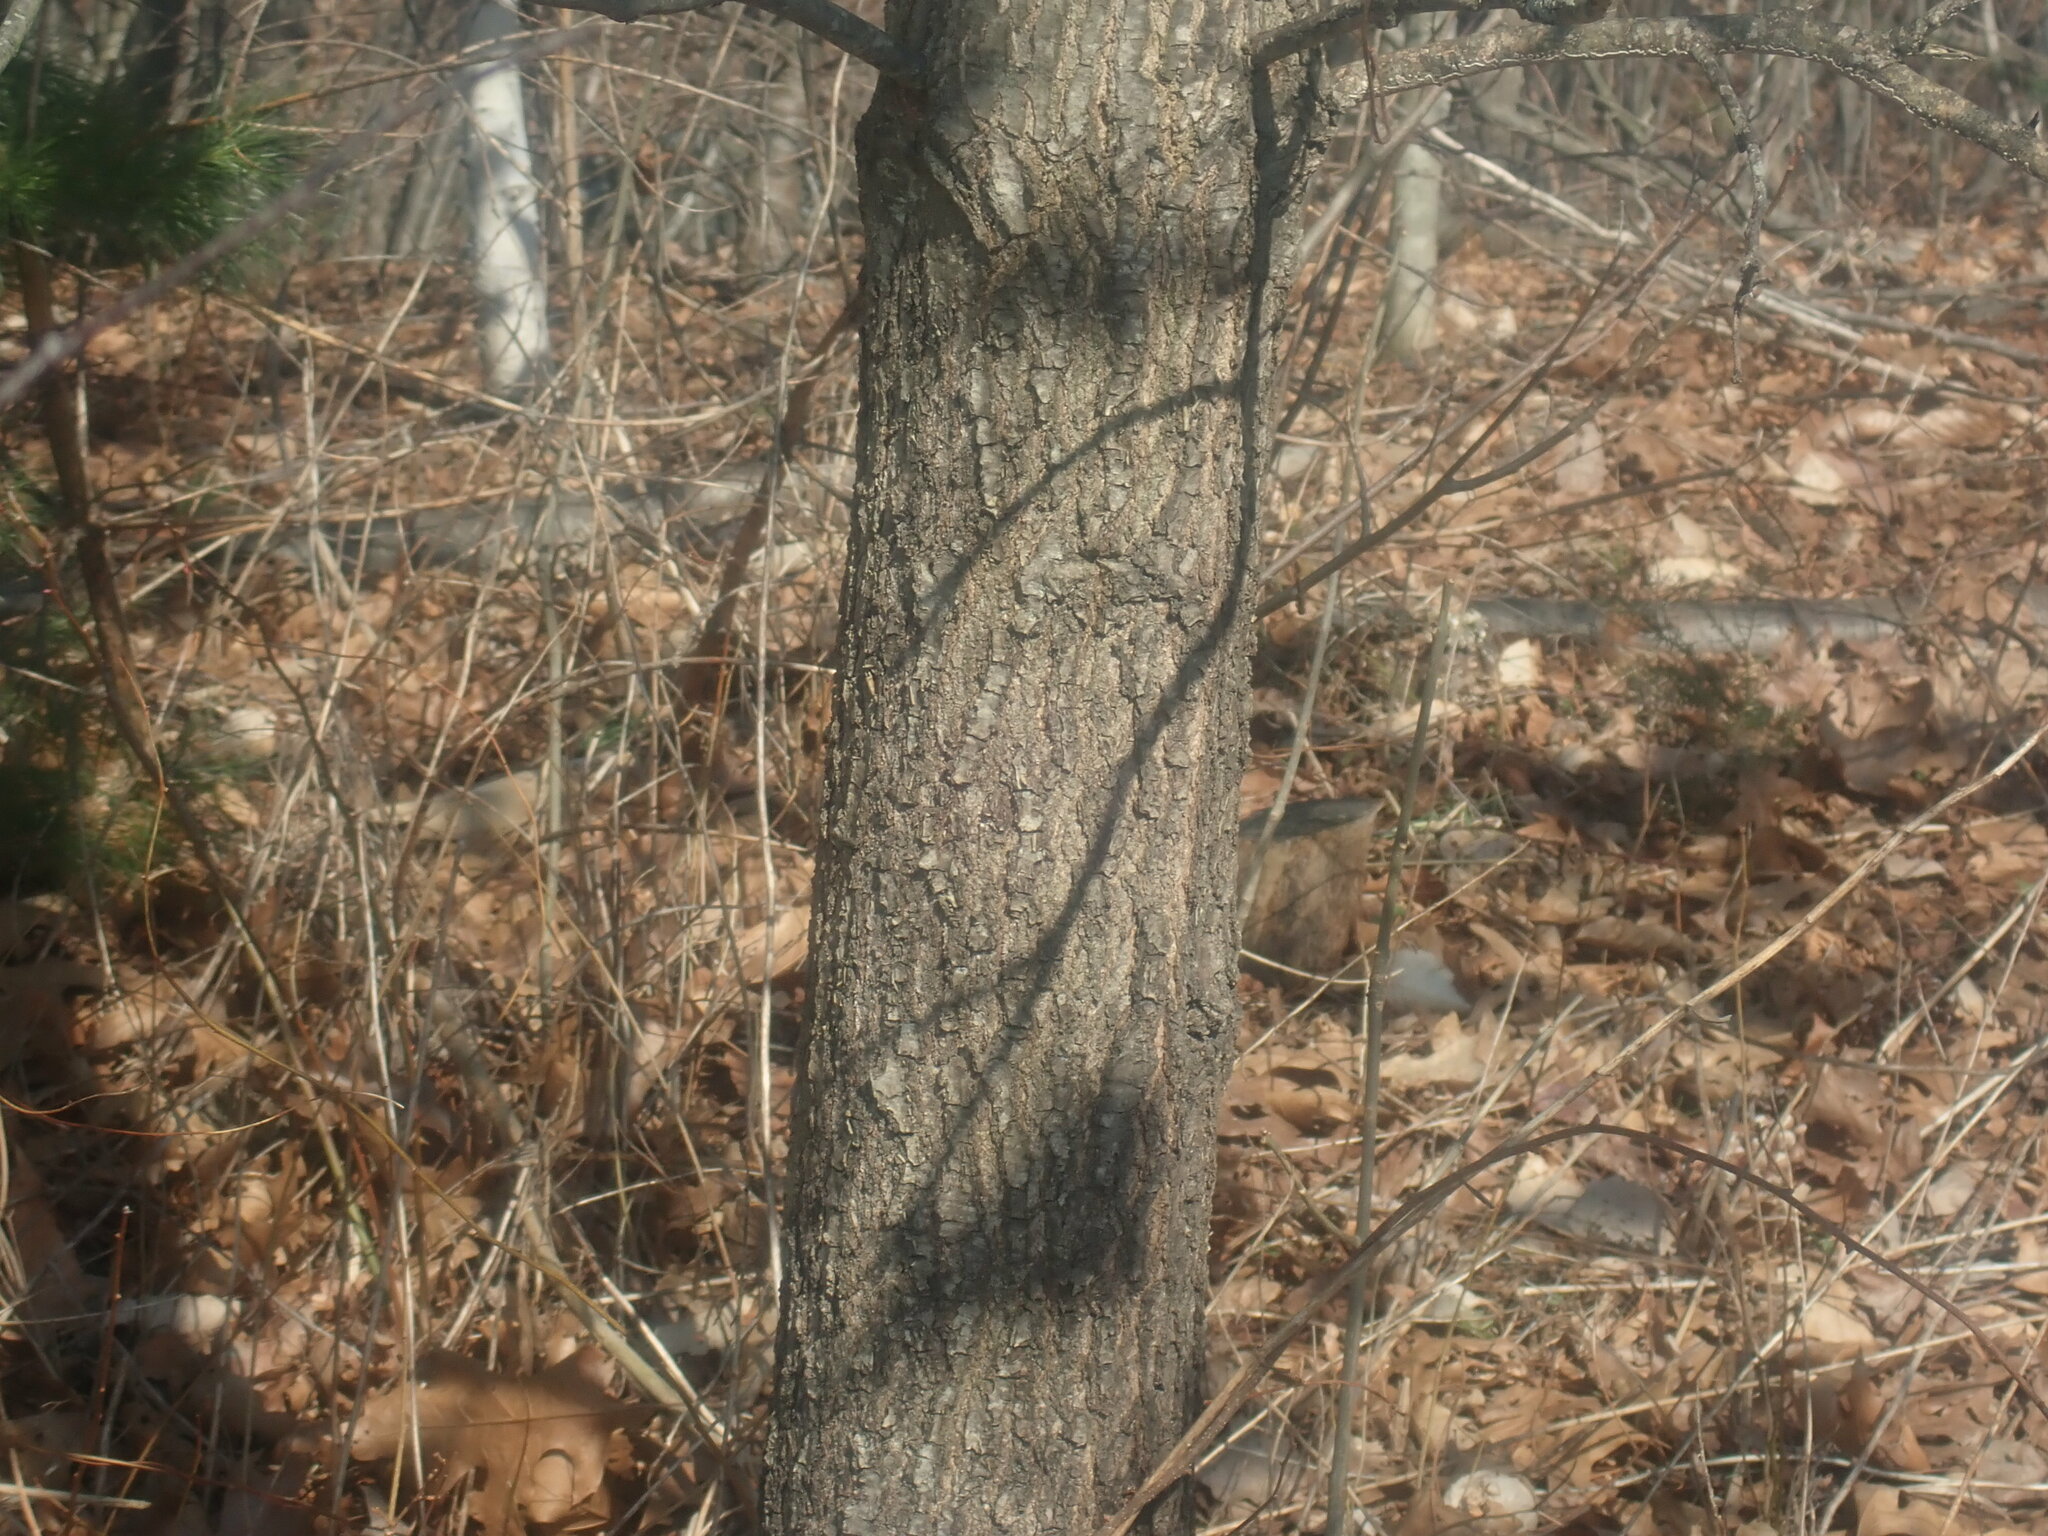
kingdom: Plantae
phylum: Tracheophyta
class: Magnoliopsida
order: Fagales
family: Fagaceae
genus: Quercus
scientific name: Quercus velutina
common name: Black oak
